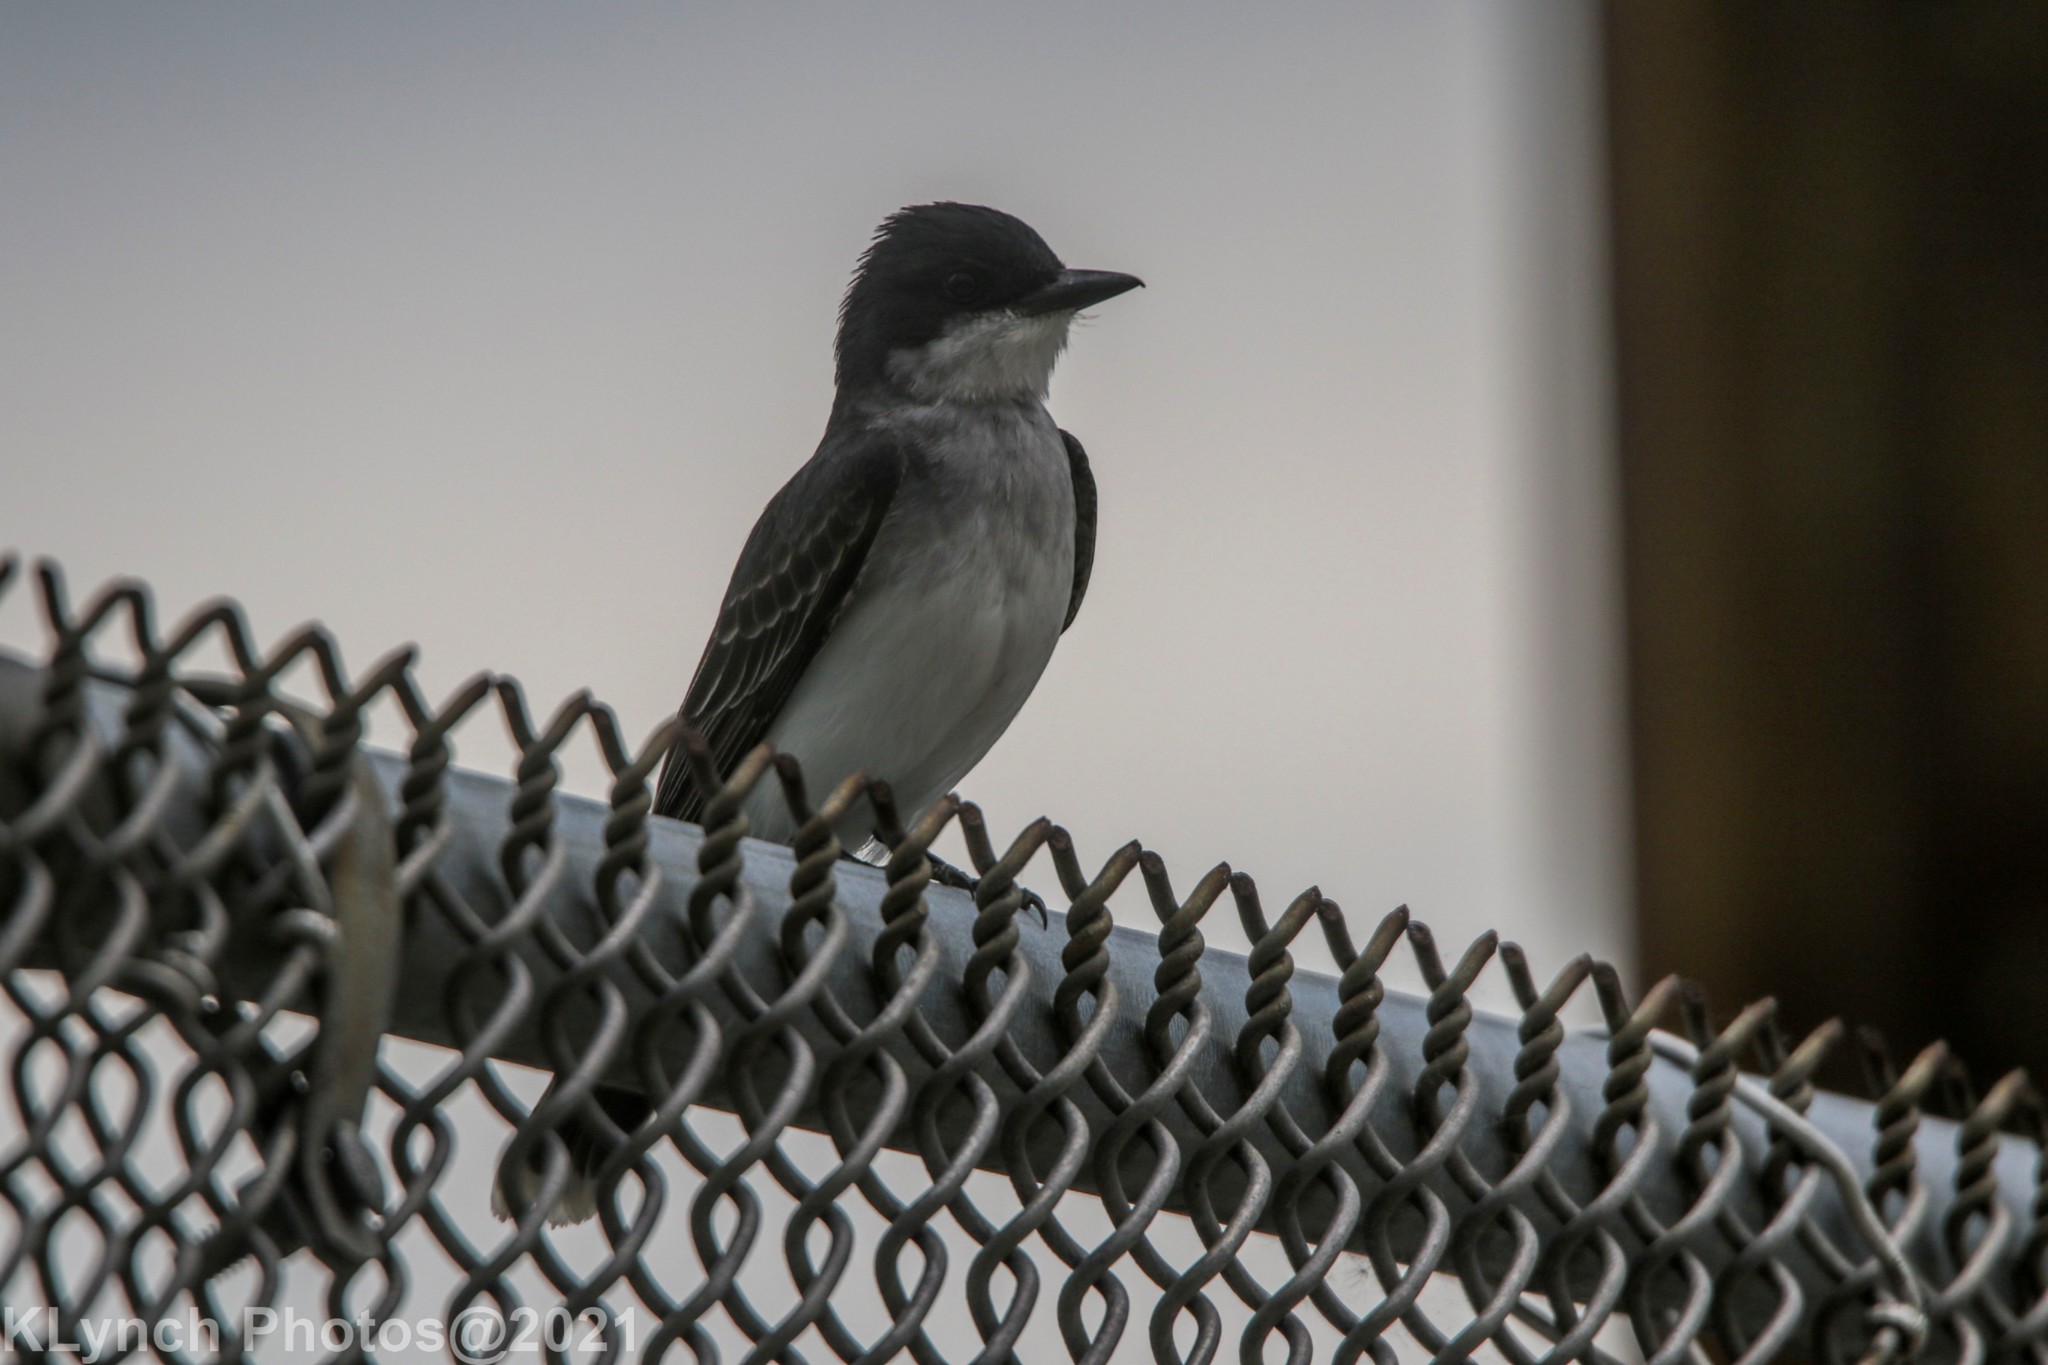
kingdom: Animalia
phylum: Chordata
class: Aves
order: Passeriformes
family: Tyrannidae
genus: Tyrannus
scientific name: Tyrannus tyrannus
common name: Eastern kingbird
